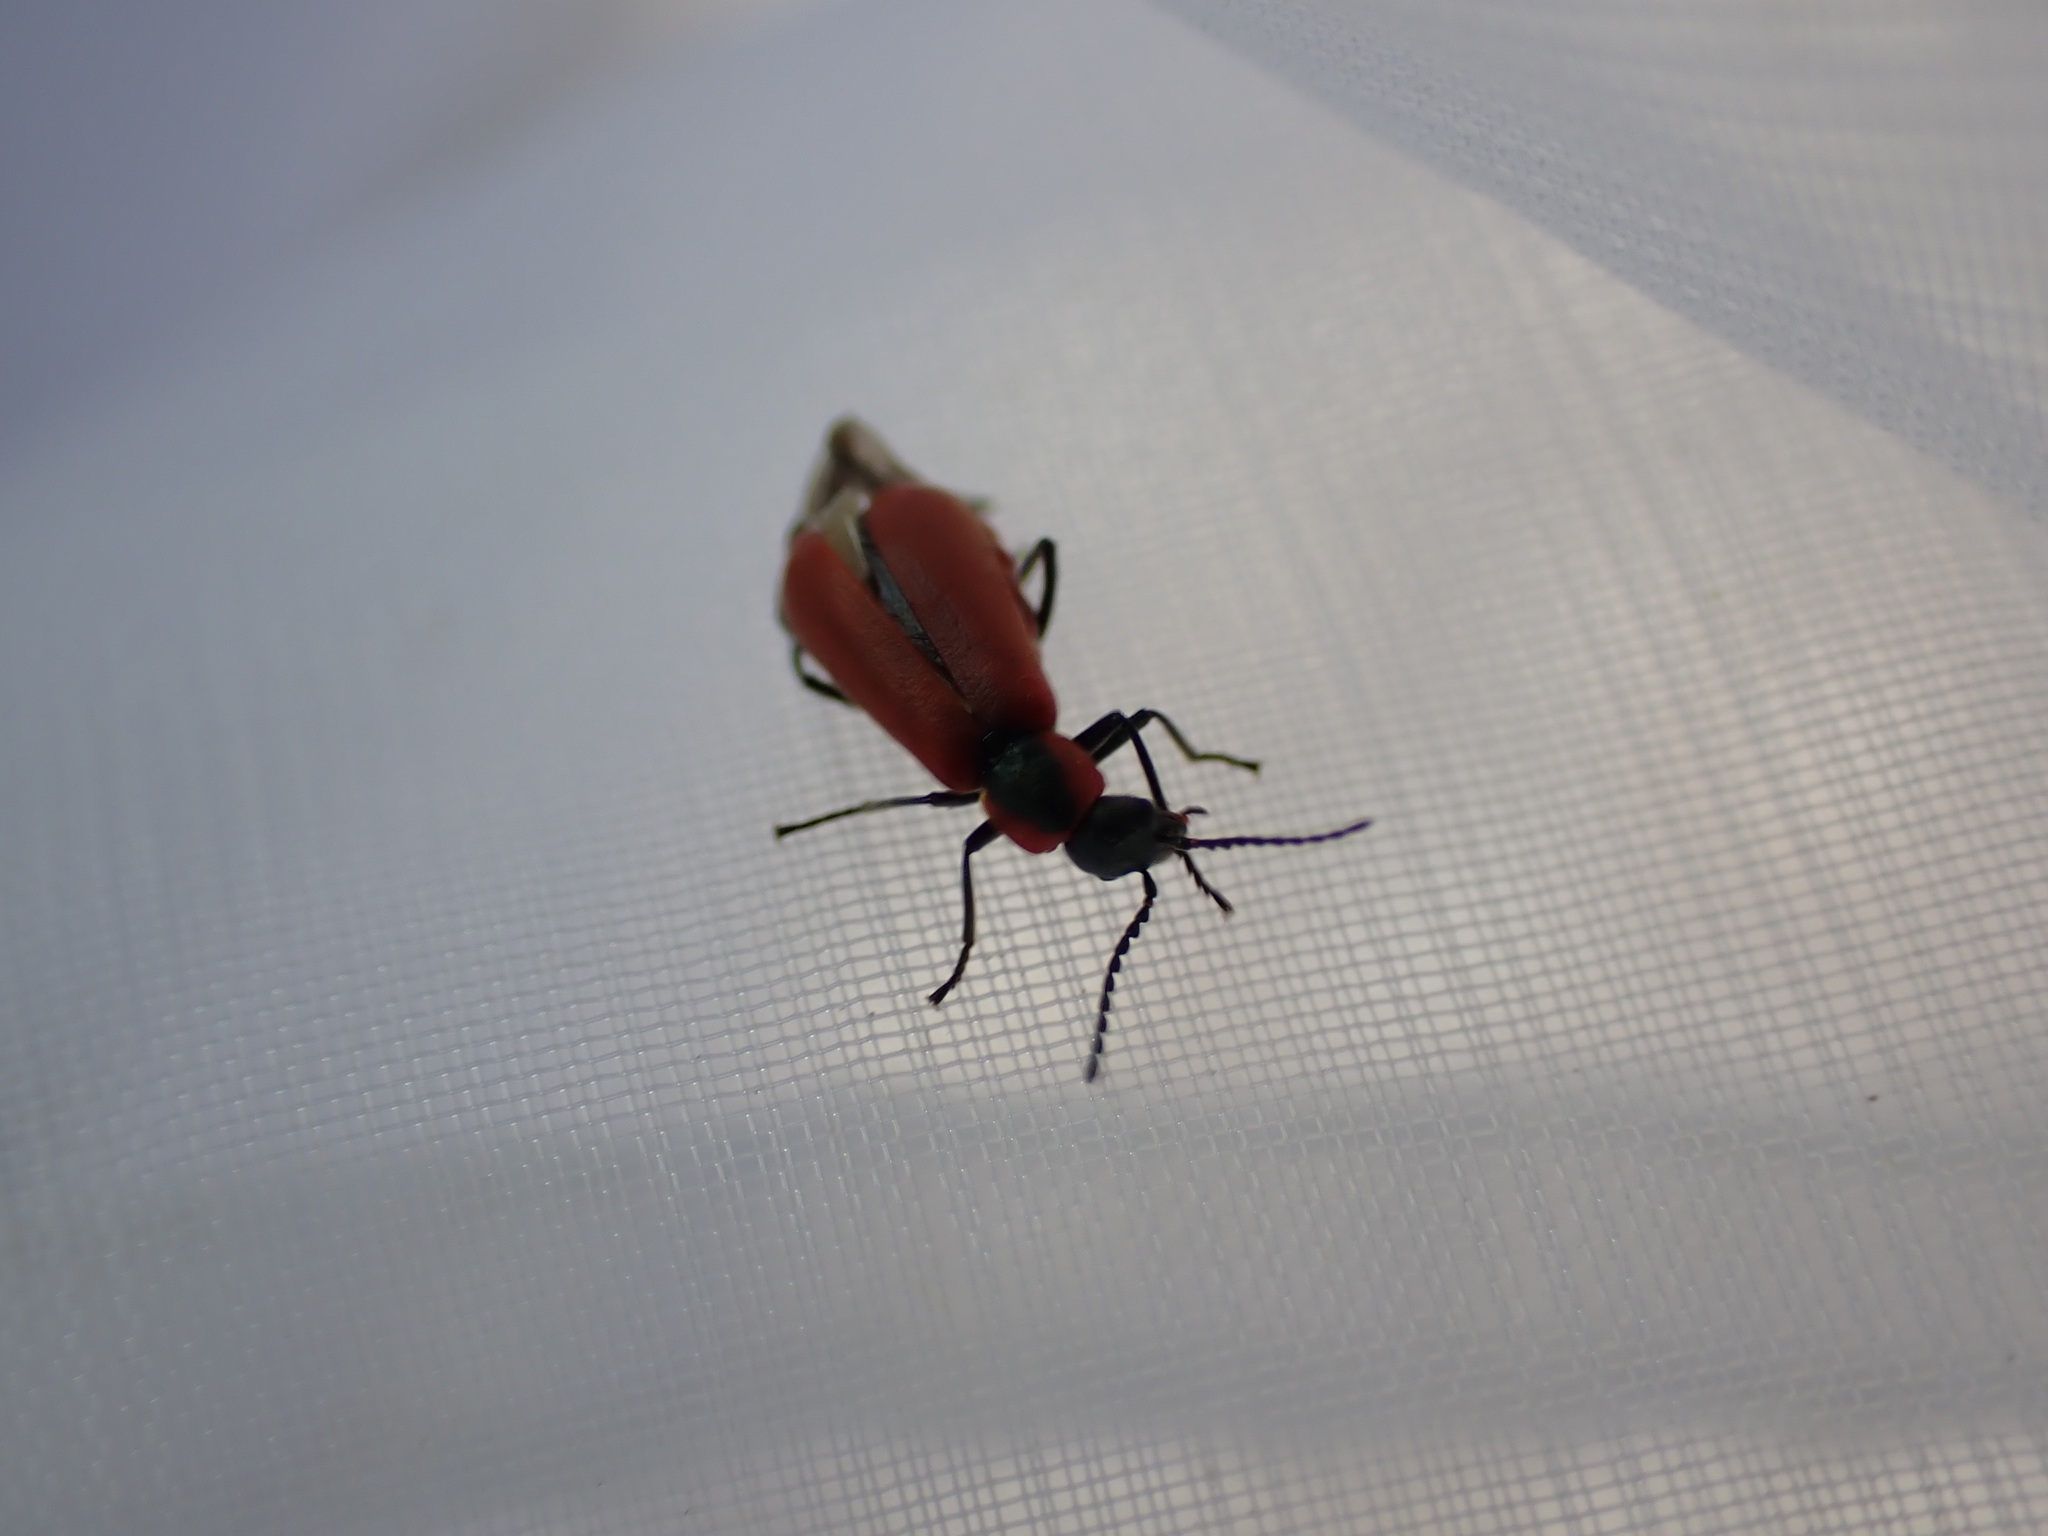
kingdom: Animalia
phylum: Arthropoda
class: Insecta
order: Coleoptera
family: Melyridae
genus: Anthocomus
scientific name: Anthocomus rufus
